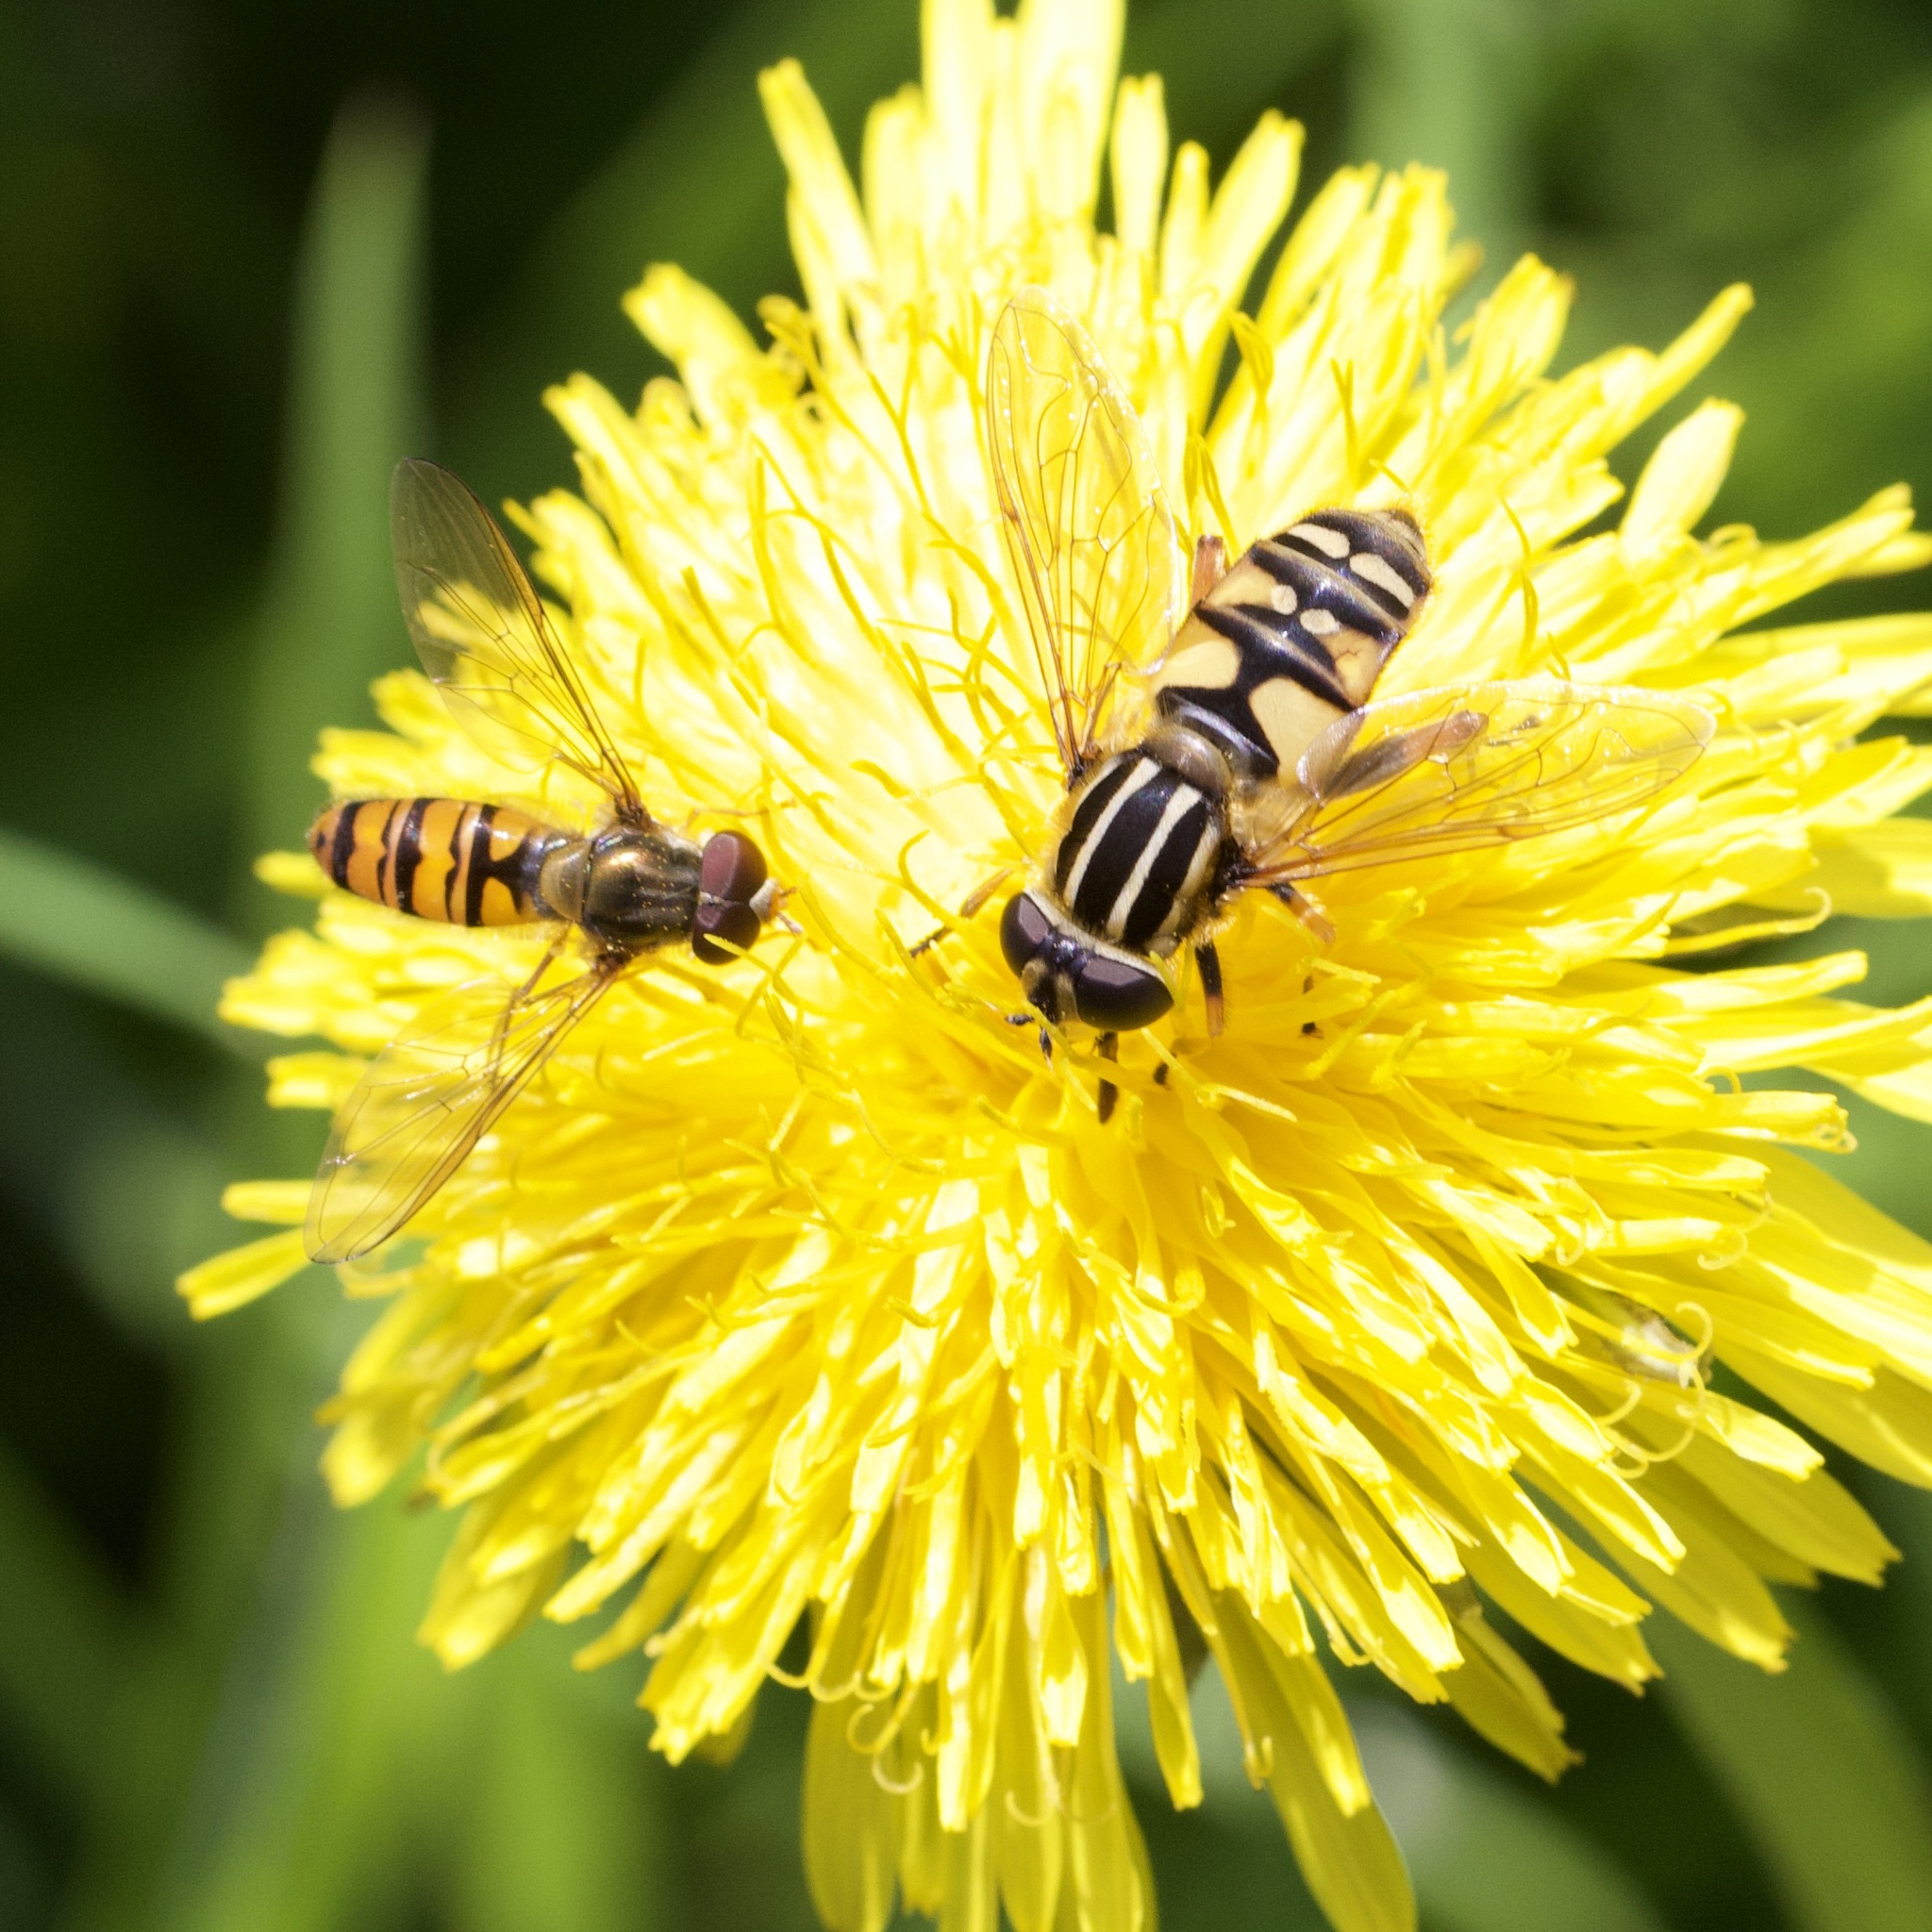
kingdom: Animalia
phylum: Arthropoda
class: Insecta
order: Diptera
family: Syrphidae
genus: Helophilus
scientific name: Helophilus pendulus
